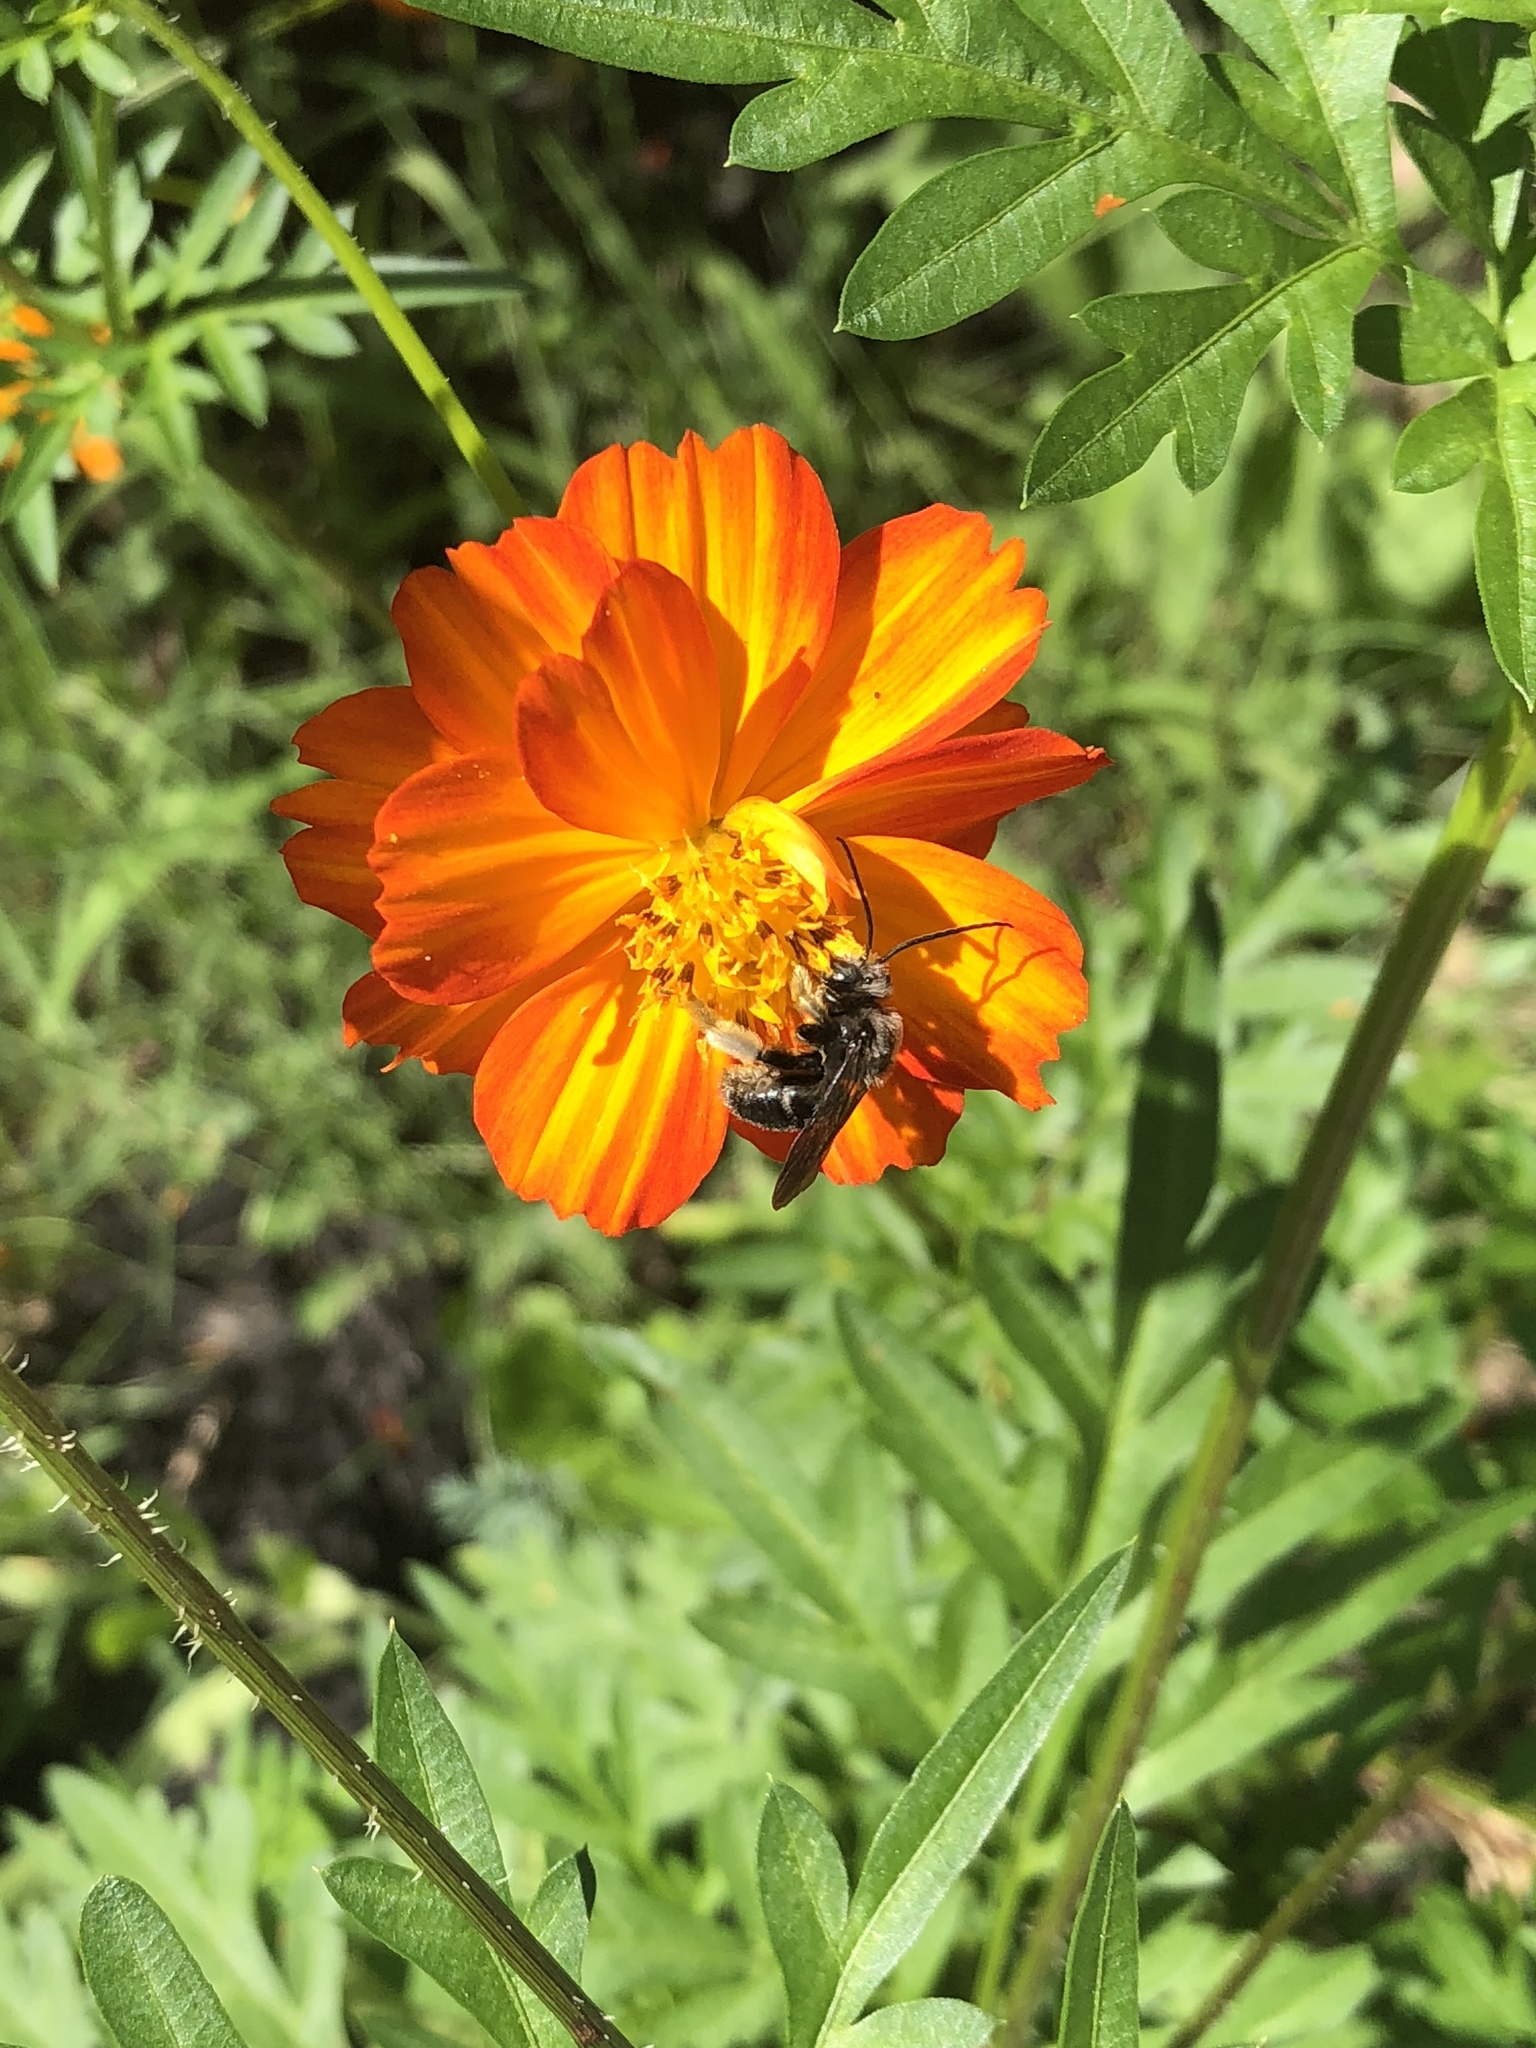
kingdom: Animalia
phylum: Arthropoda
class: Insecta
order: Hymenoptera
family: Apidae
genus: Melissodes
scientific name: Melissodes bimaculatus
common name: Two-spotted long-horned bee
